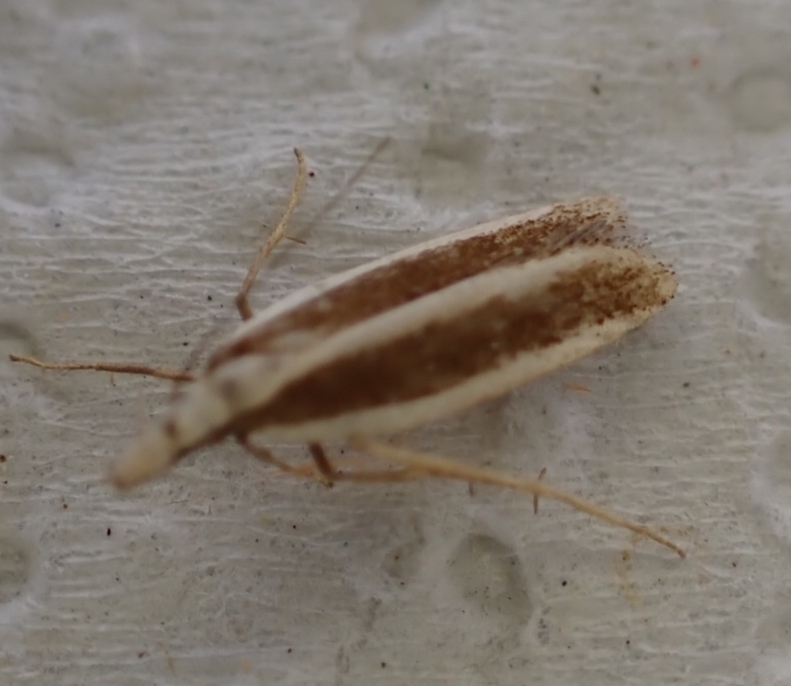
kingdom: Animalia
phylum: Arthropoda
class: Insecta
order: Lepidoptera
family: Gelechiidae
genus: Dichomeris
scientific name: Dichomeris marginella
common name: Juniper webworm
